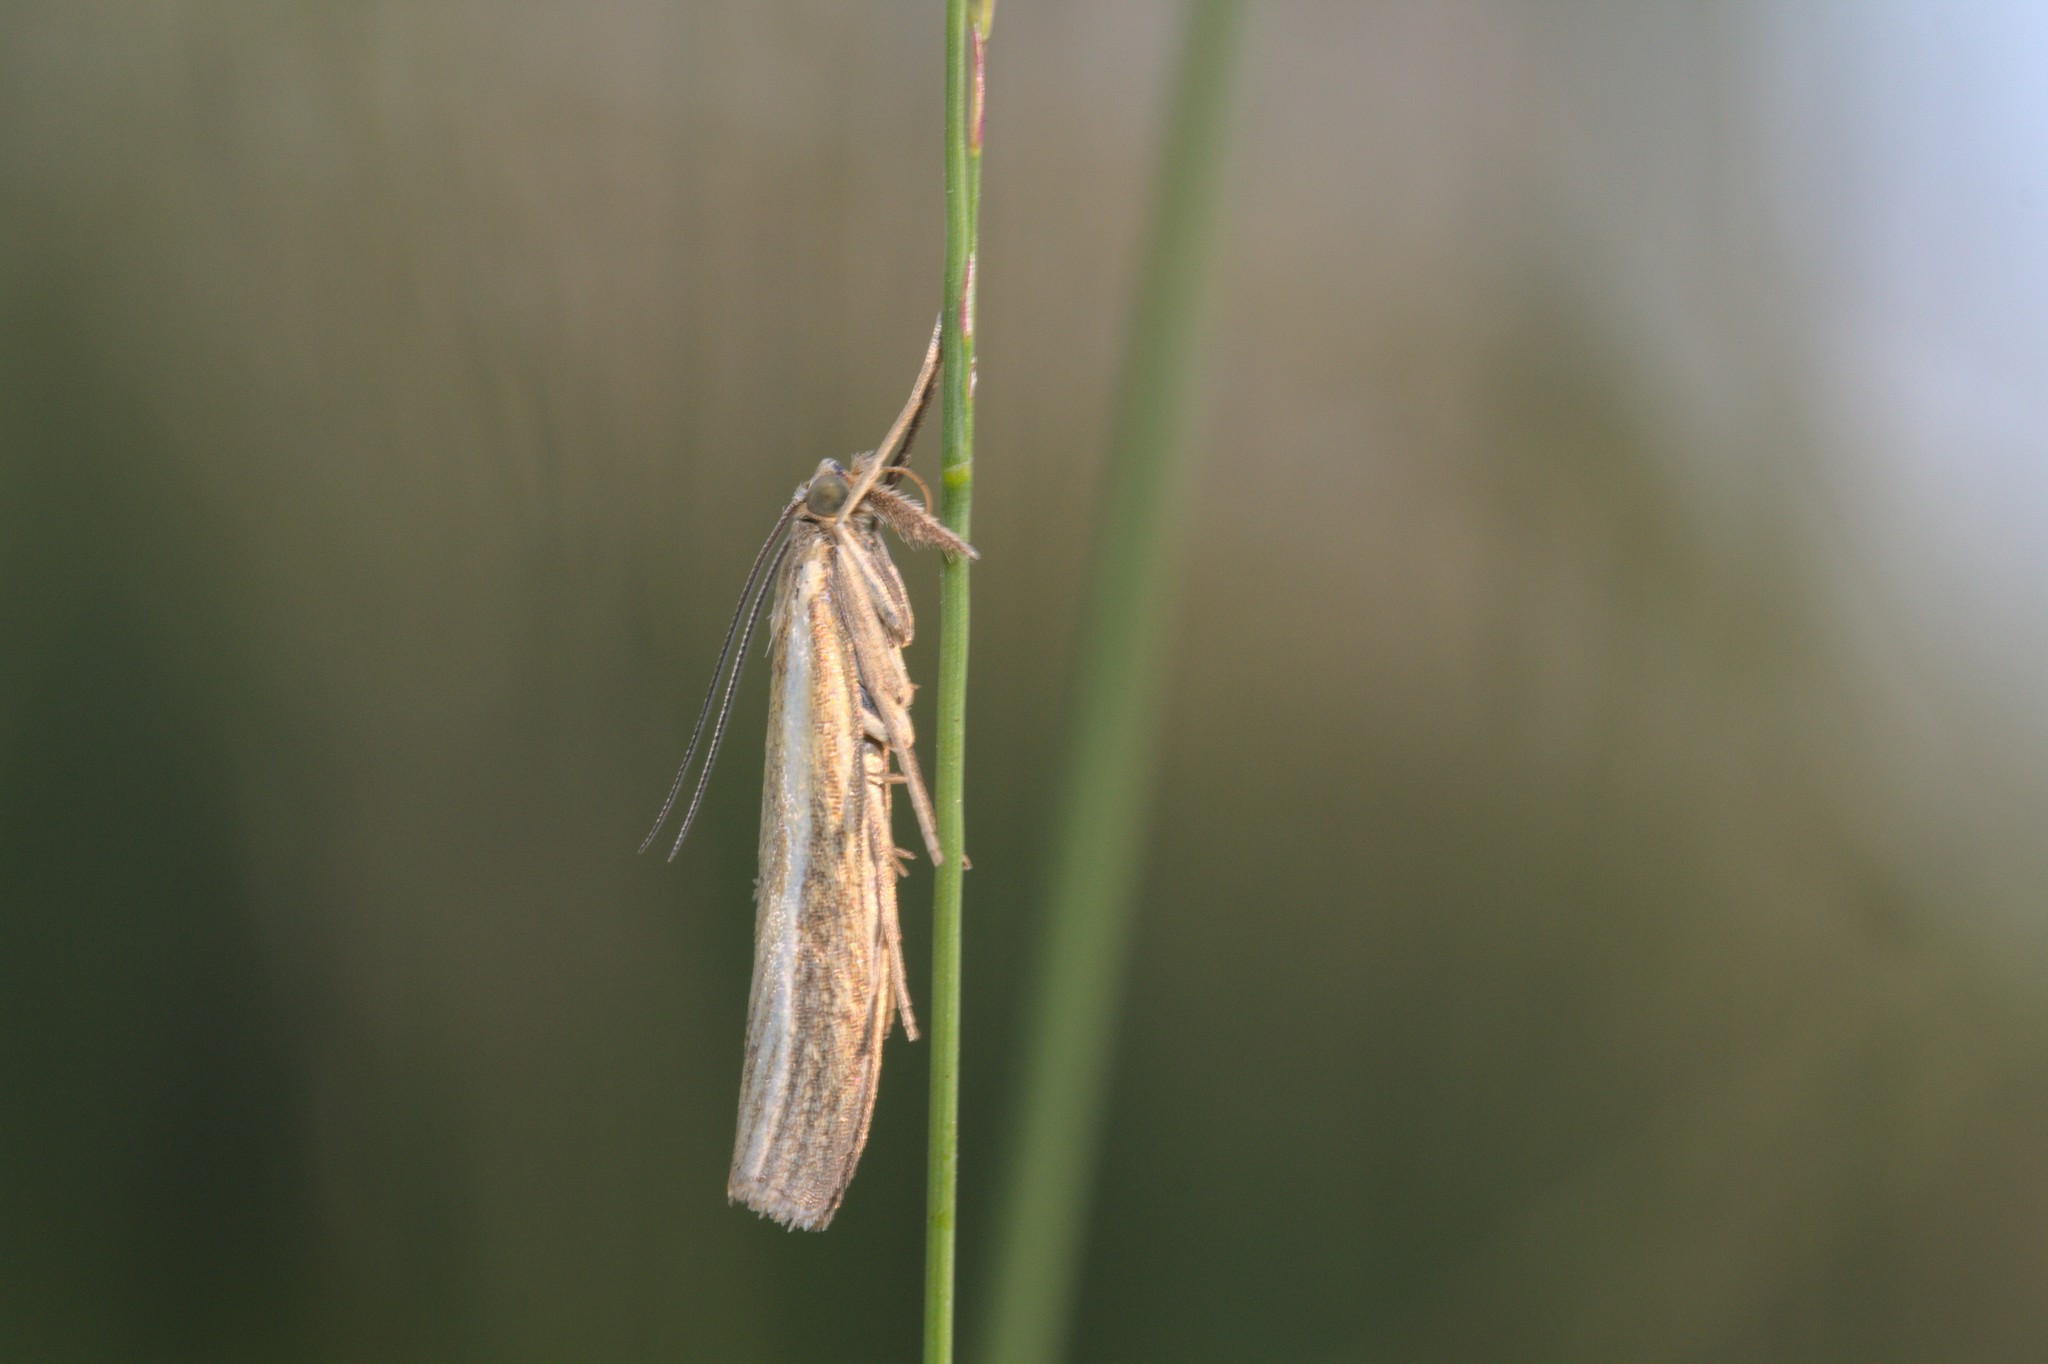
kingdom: Animalia
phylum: Arthropoda
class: Insecta
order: Lepidoptera
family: Crambidae
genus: Agriphila
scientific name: Agriphila tristellus
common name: Common grass-veneer
